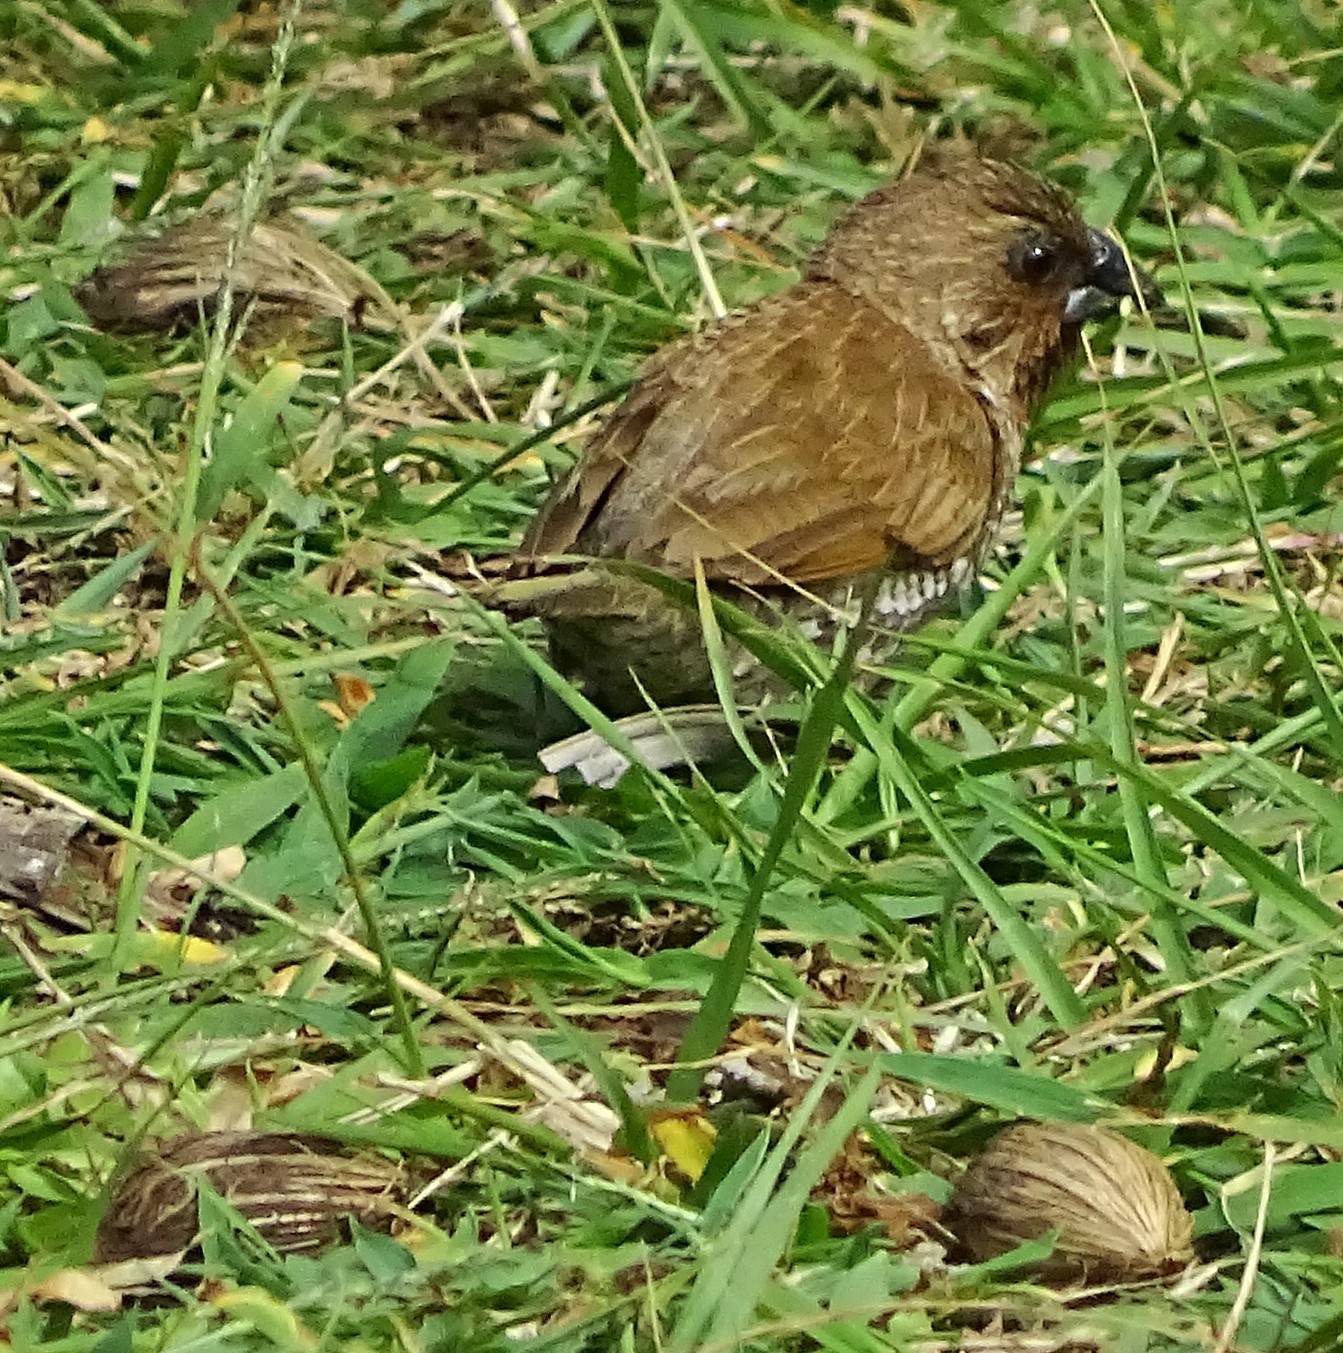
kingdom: Animalia
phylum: Chordata
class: Aves
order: Passeriformes
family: Estrildidae
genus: Lonchura
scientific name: Lonchura punctulata
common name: Scaly-breasted munia
